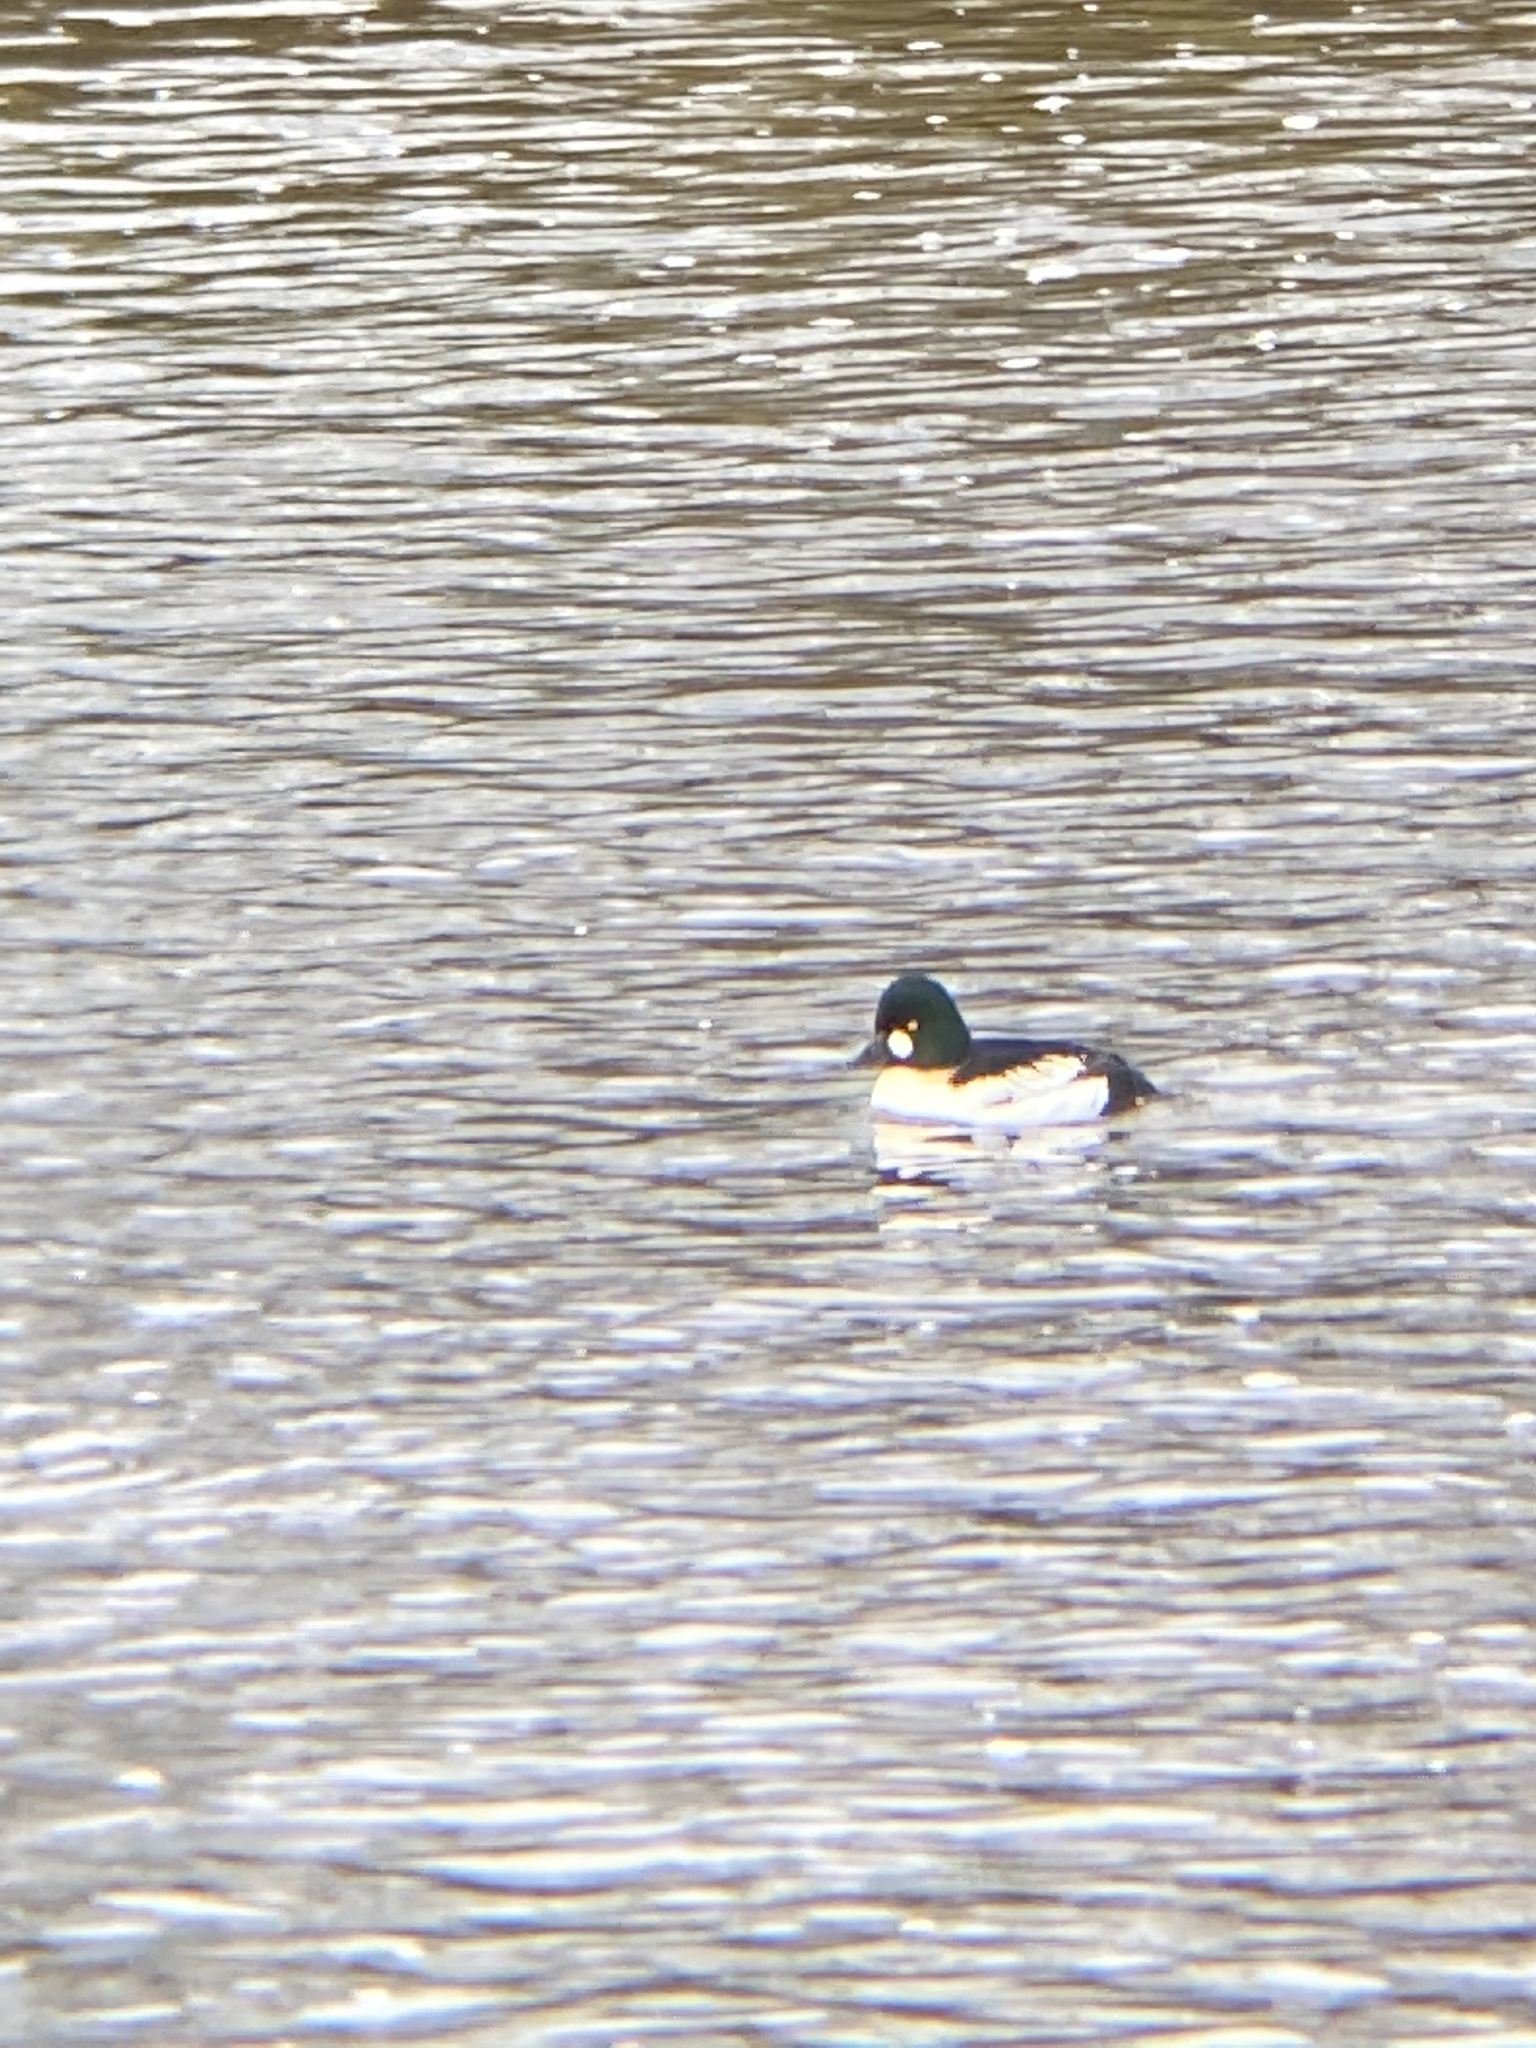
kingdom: Animalia
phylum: Chordata
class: Aves
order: Anseriformes
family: Anatidae
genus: Bucephala
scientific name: Bucephala clangula
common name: Common goldeneye
